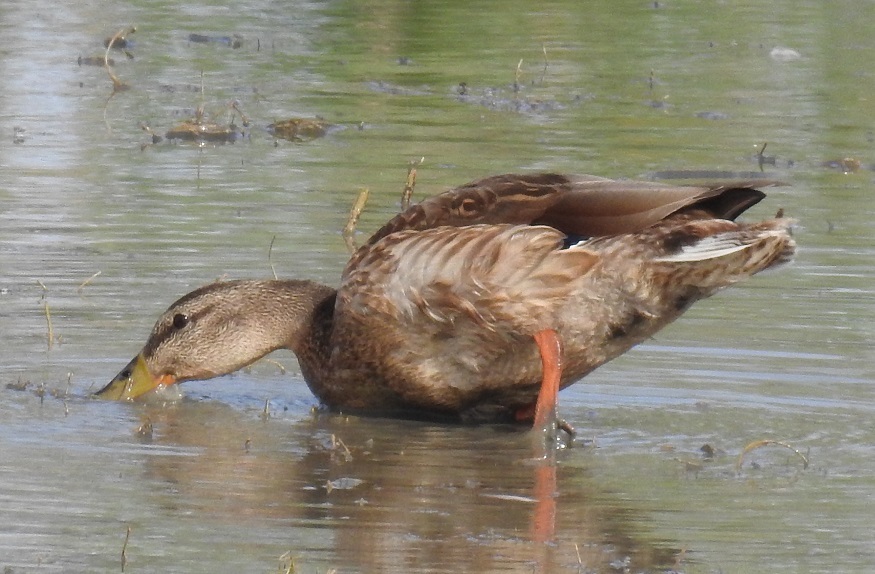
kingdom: Animalia
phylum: Chordata
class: Aves
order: Anseriformes
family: Anatidae
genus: Anas
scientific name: Anas platyrhynchos
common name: Mallard
